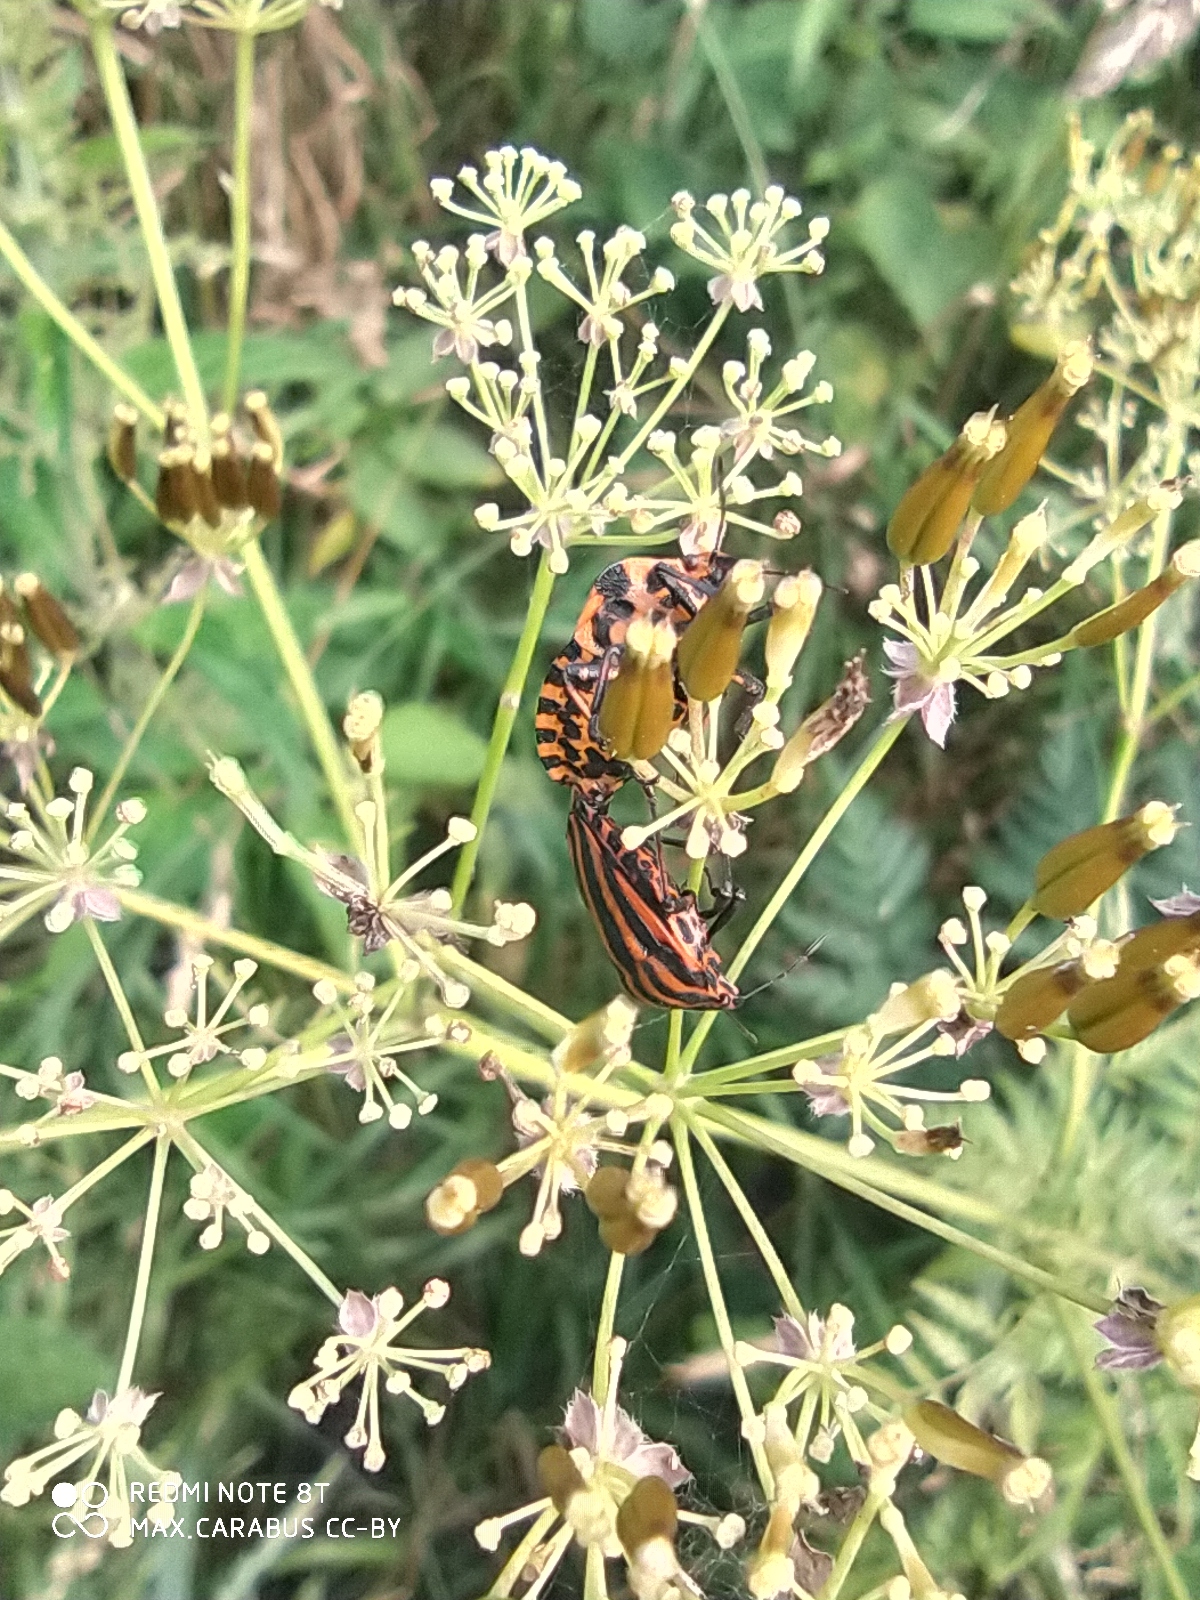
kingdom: Animalia
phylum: Arthropoda
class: Insecta
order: Hemiptera
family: Pentatomidae
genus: Graphosoma
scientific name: Graphosoma italicum
